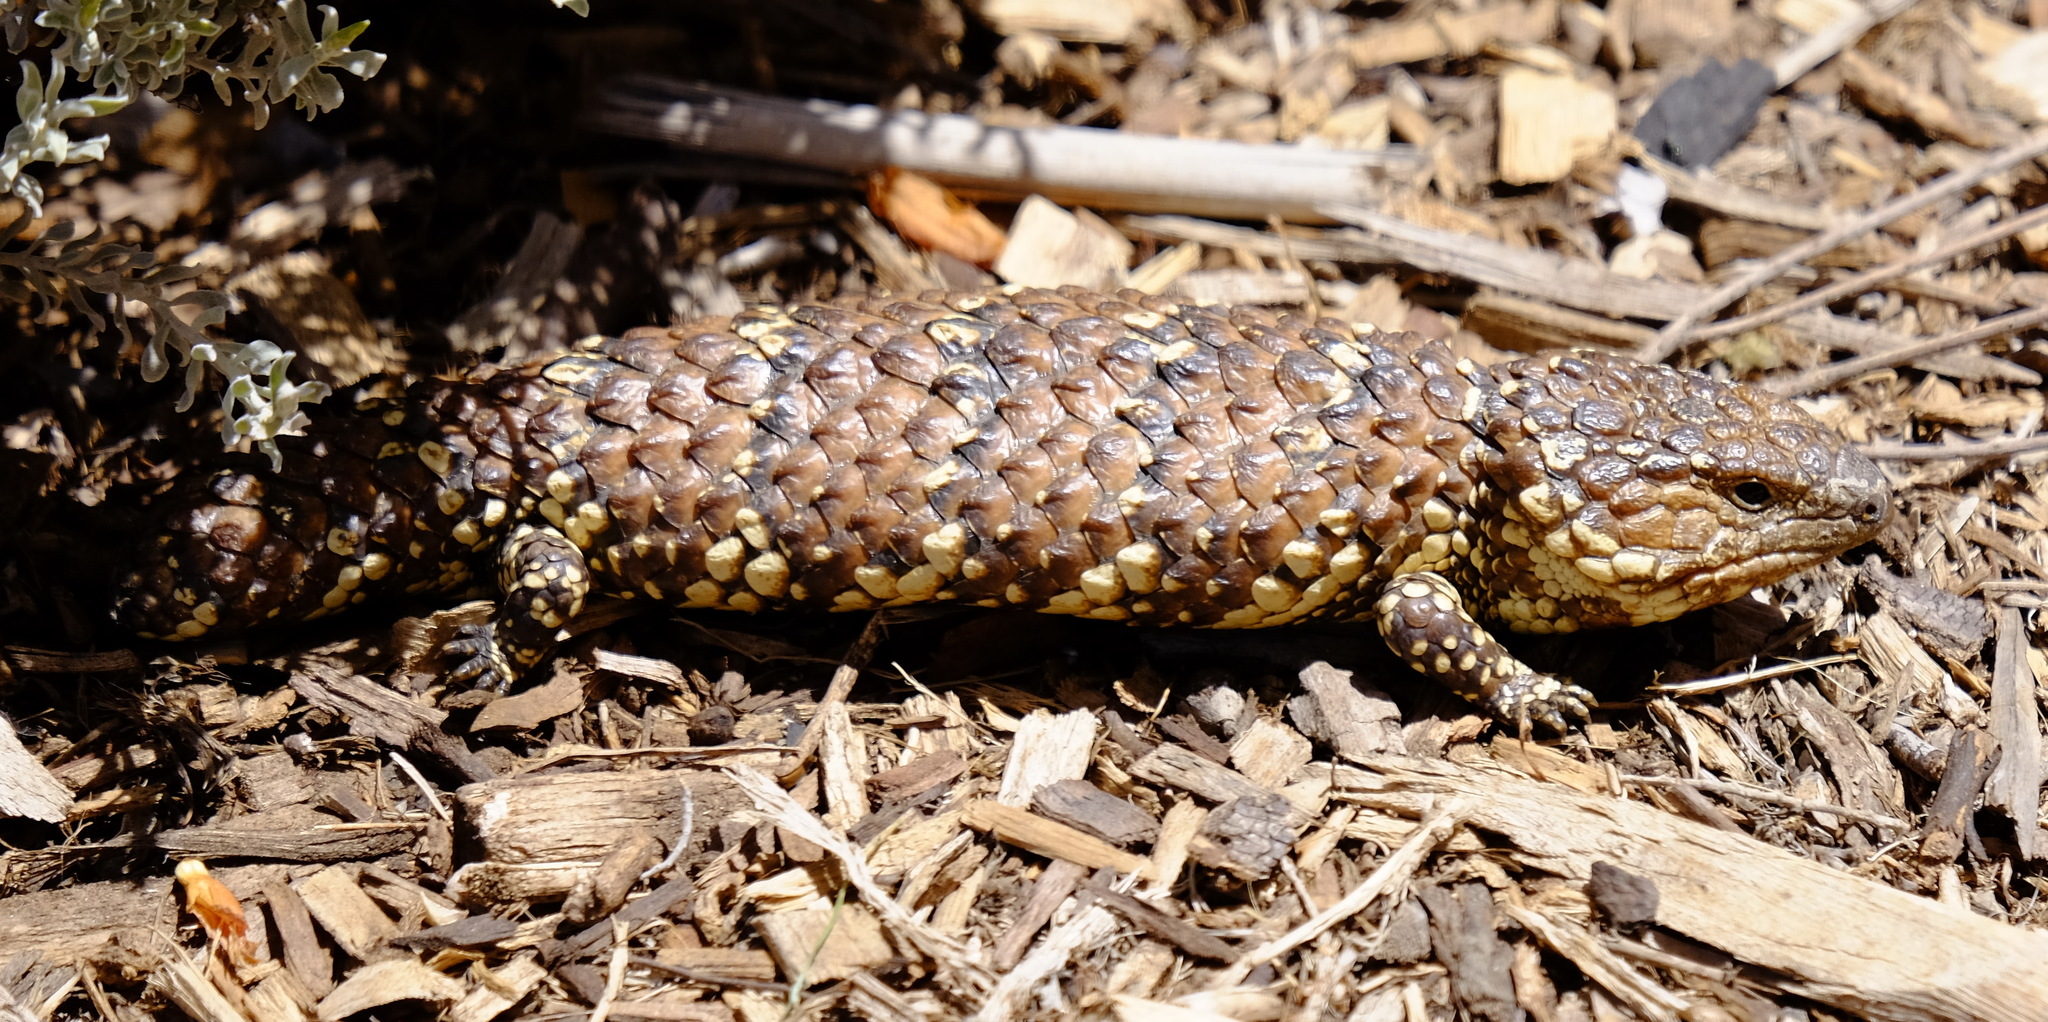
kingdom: Animalia
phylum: Chordata
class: Squamata
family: Scincidae
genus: Tiliqua
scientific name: Tiliqua rugosa
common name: Pinecone lizard
